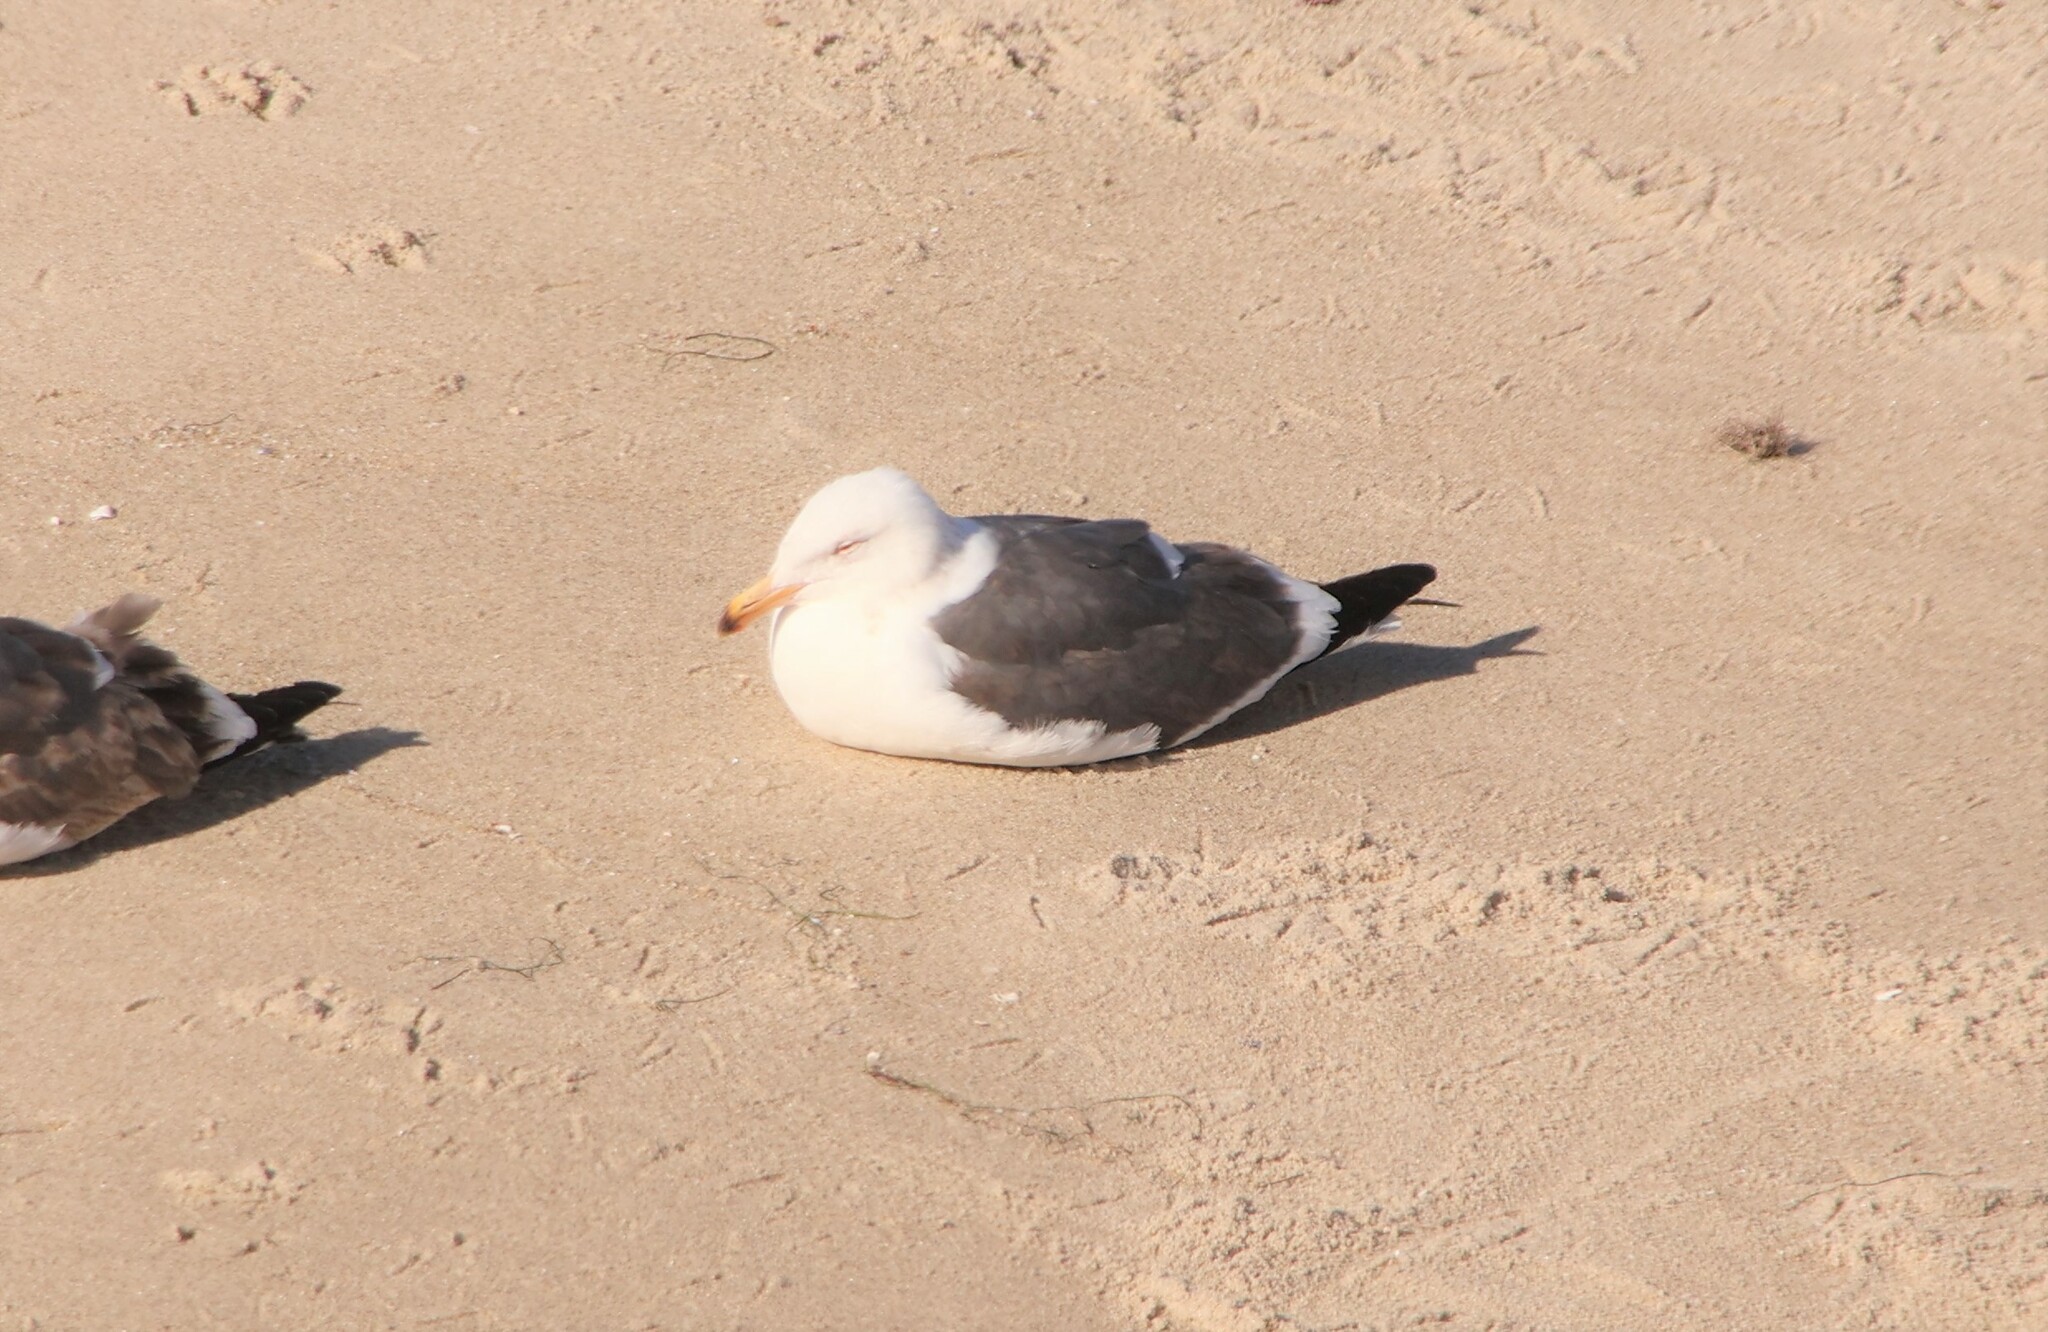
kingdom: Animalia
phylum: Chordata
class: Aves
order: Charadriiformes
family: Laridae
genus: Larus
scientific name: Larus occidentalis
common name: Western gull
